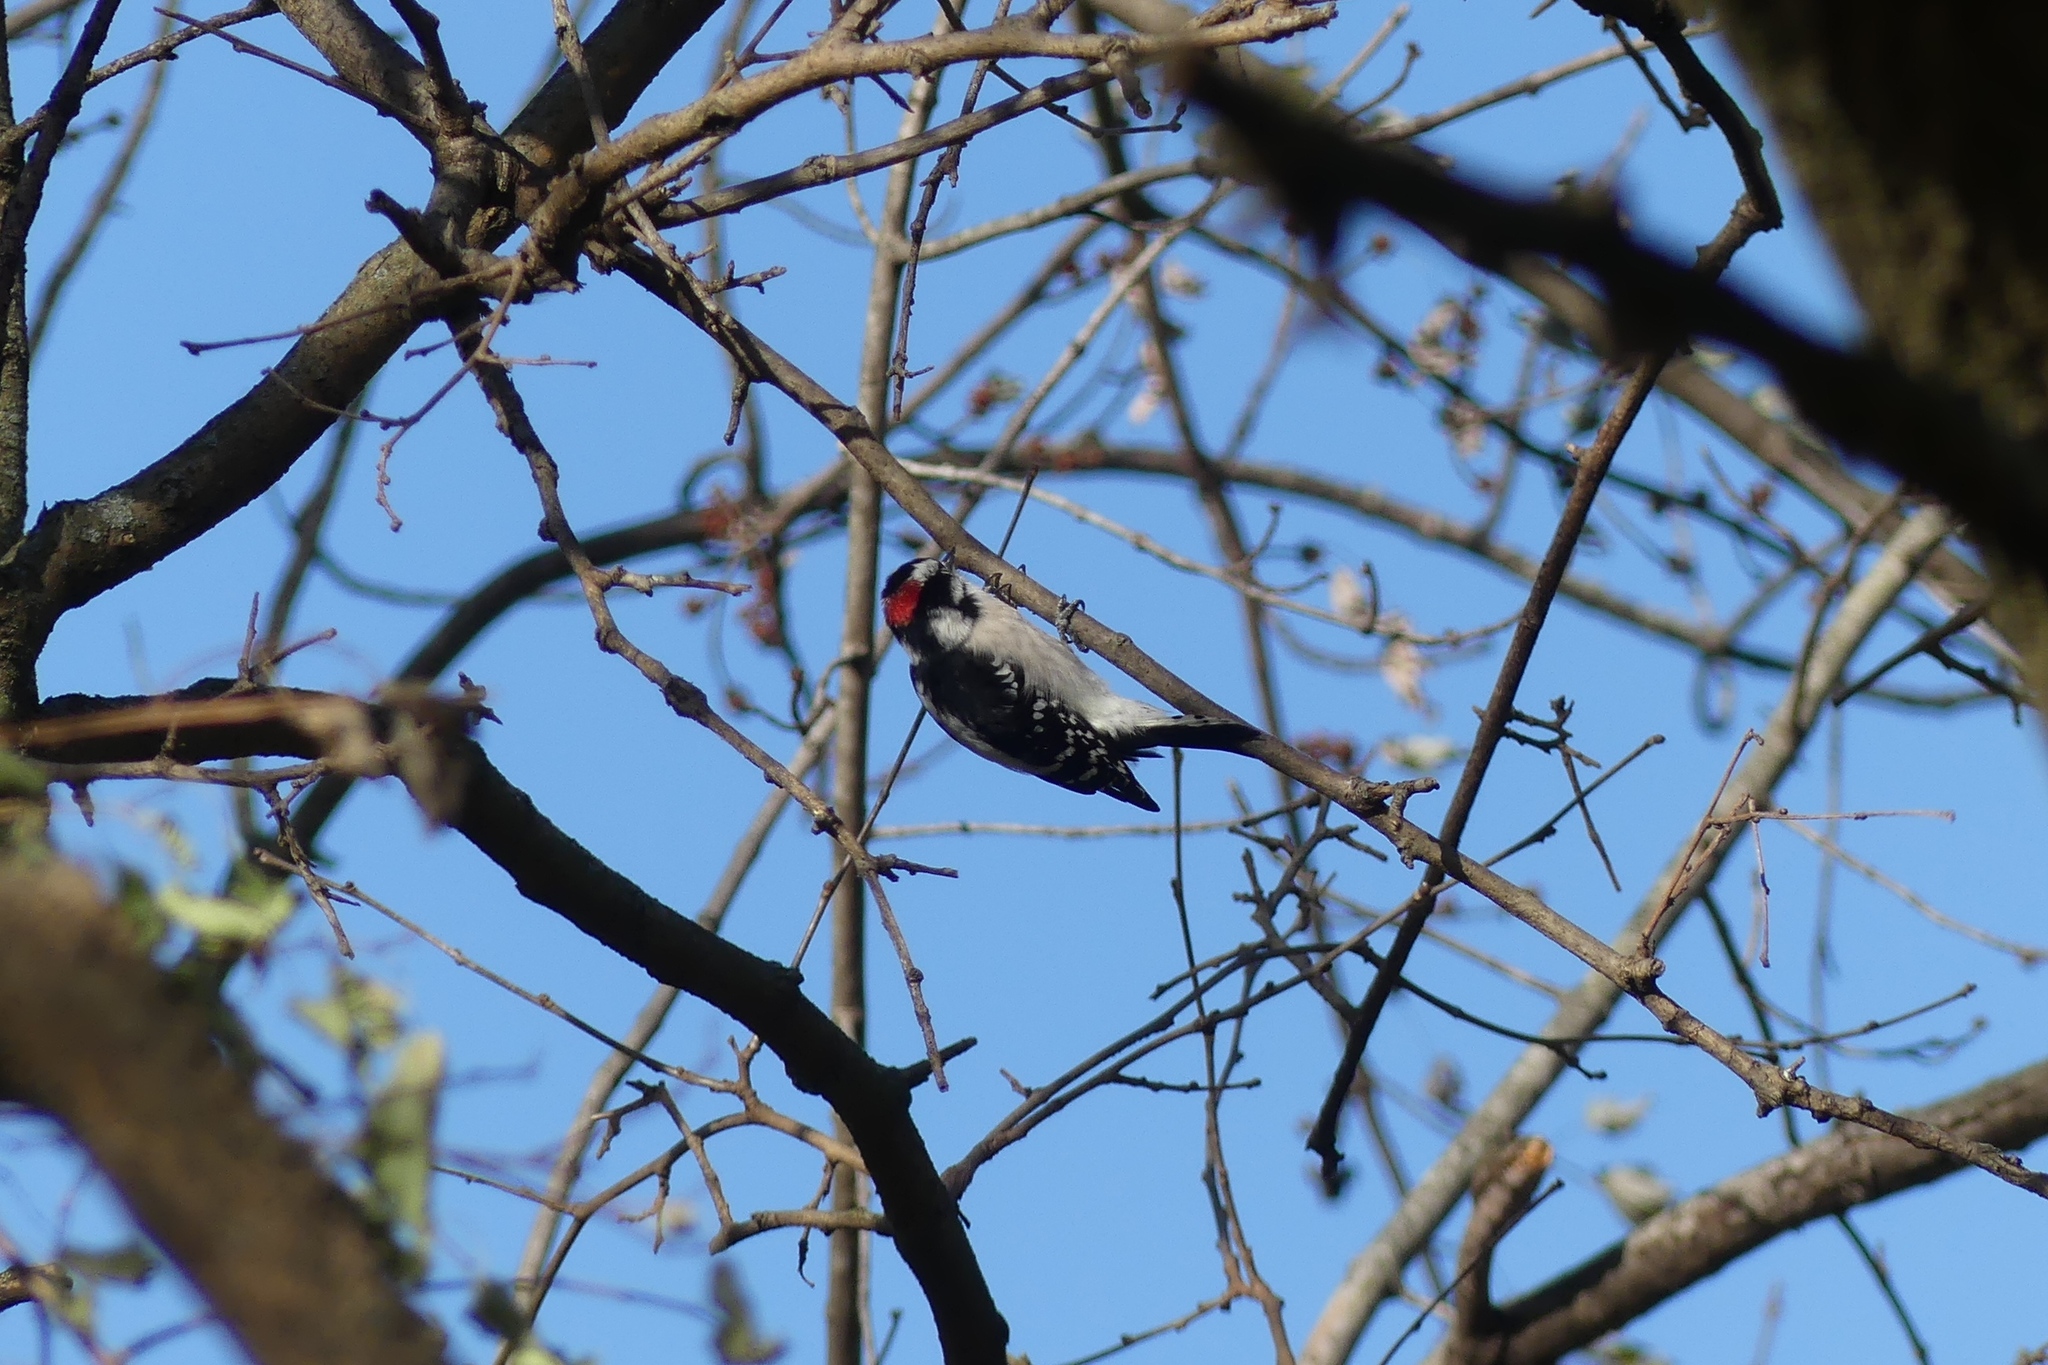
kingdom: Animalia
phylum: Chordata
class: Aves
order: Piciformes
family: Picidae
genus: Dryobates
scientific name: Dryobates pubescens
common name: Downy woodpecker
